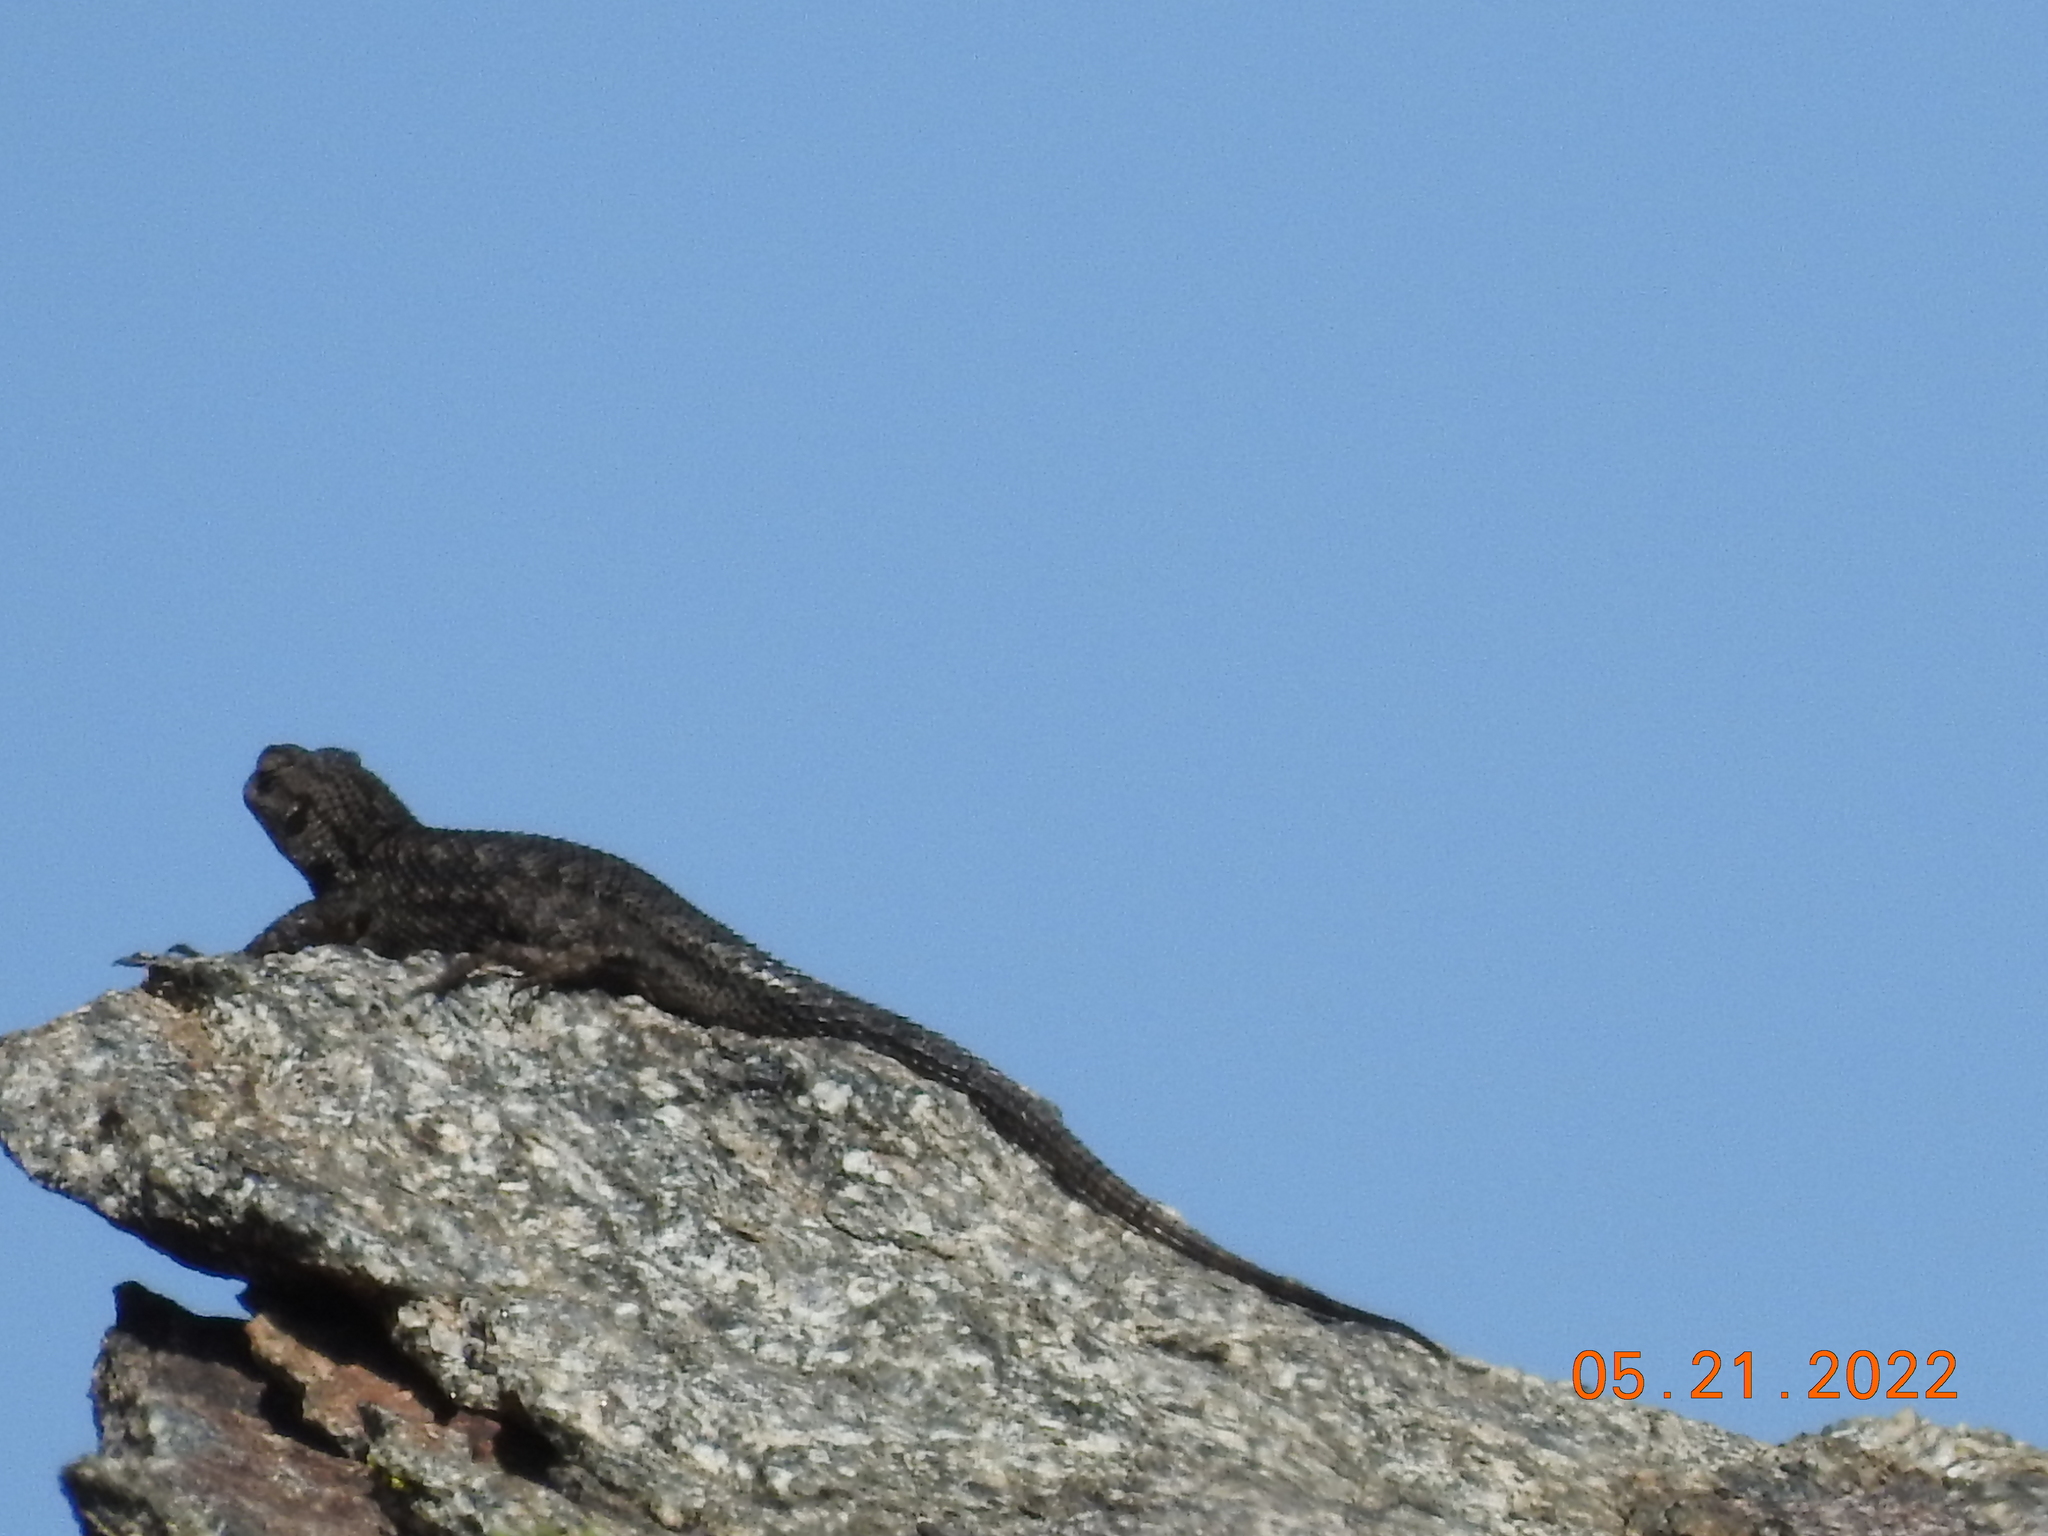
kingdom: Animalia
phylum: Chordata
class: Squamata
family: Phrynosomatidae
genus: Sceloporus
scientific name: Sceloporus occidentalis
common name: Western fence lizard
